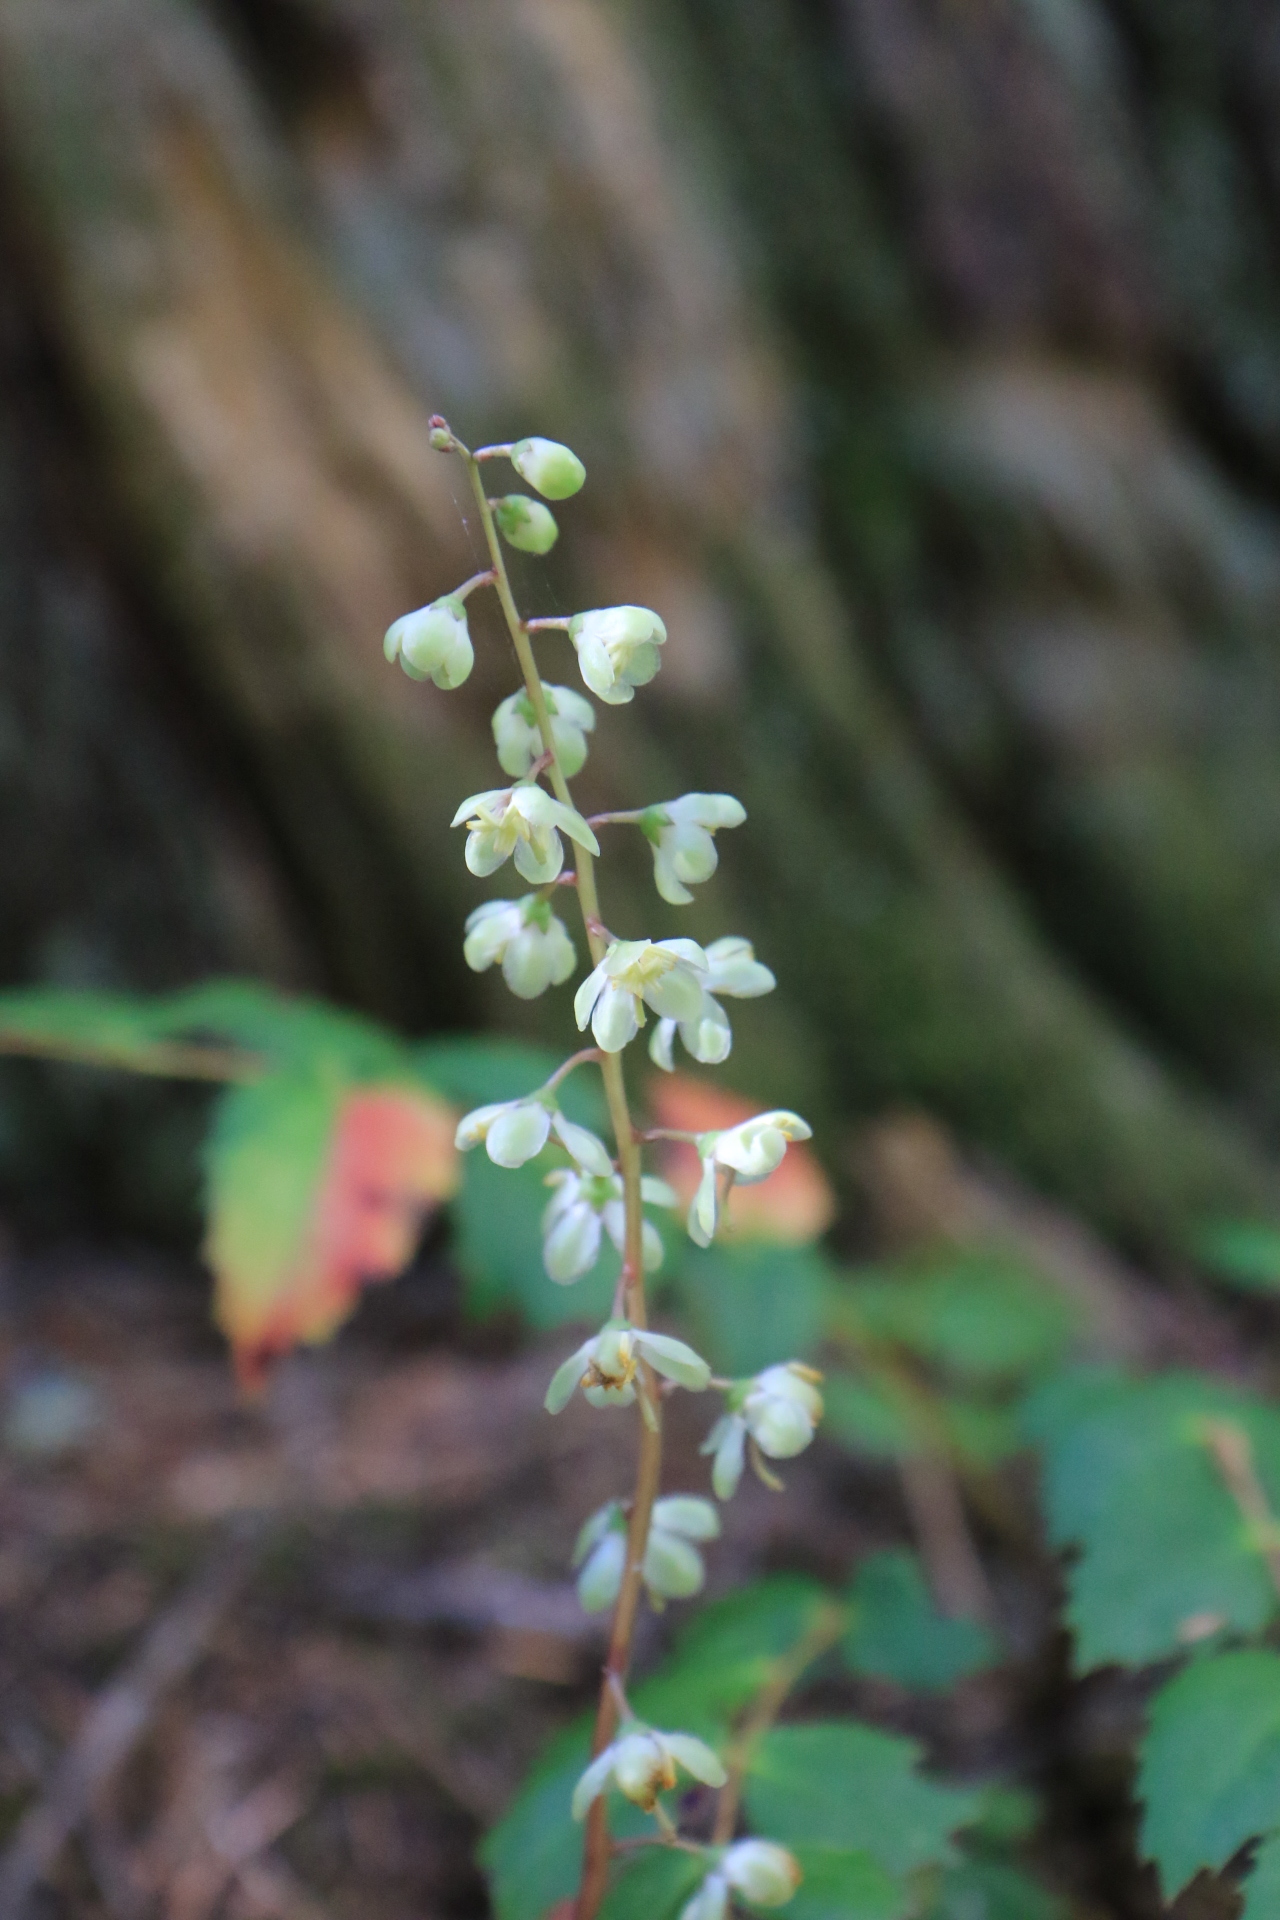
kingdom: Plantae
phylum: Tracheophyta
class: Magnoliopsida
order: Ericales
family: Ericaceae
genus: Pyrola
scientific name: Pyrola picta
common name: White-vein wintergreen
